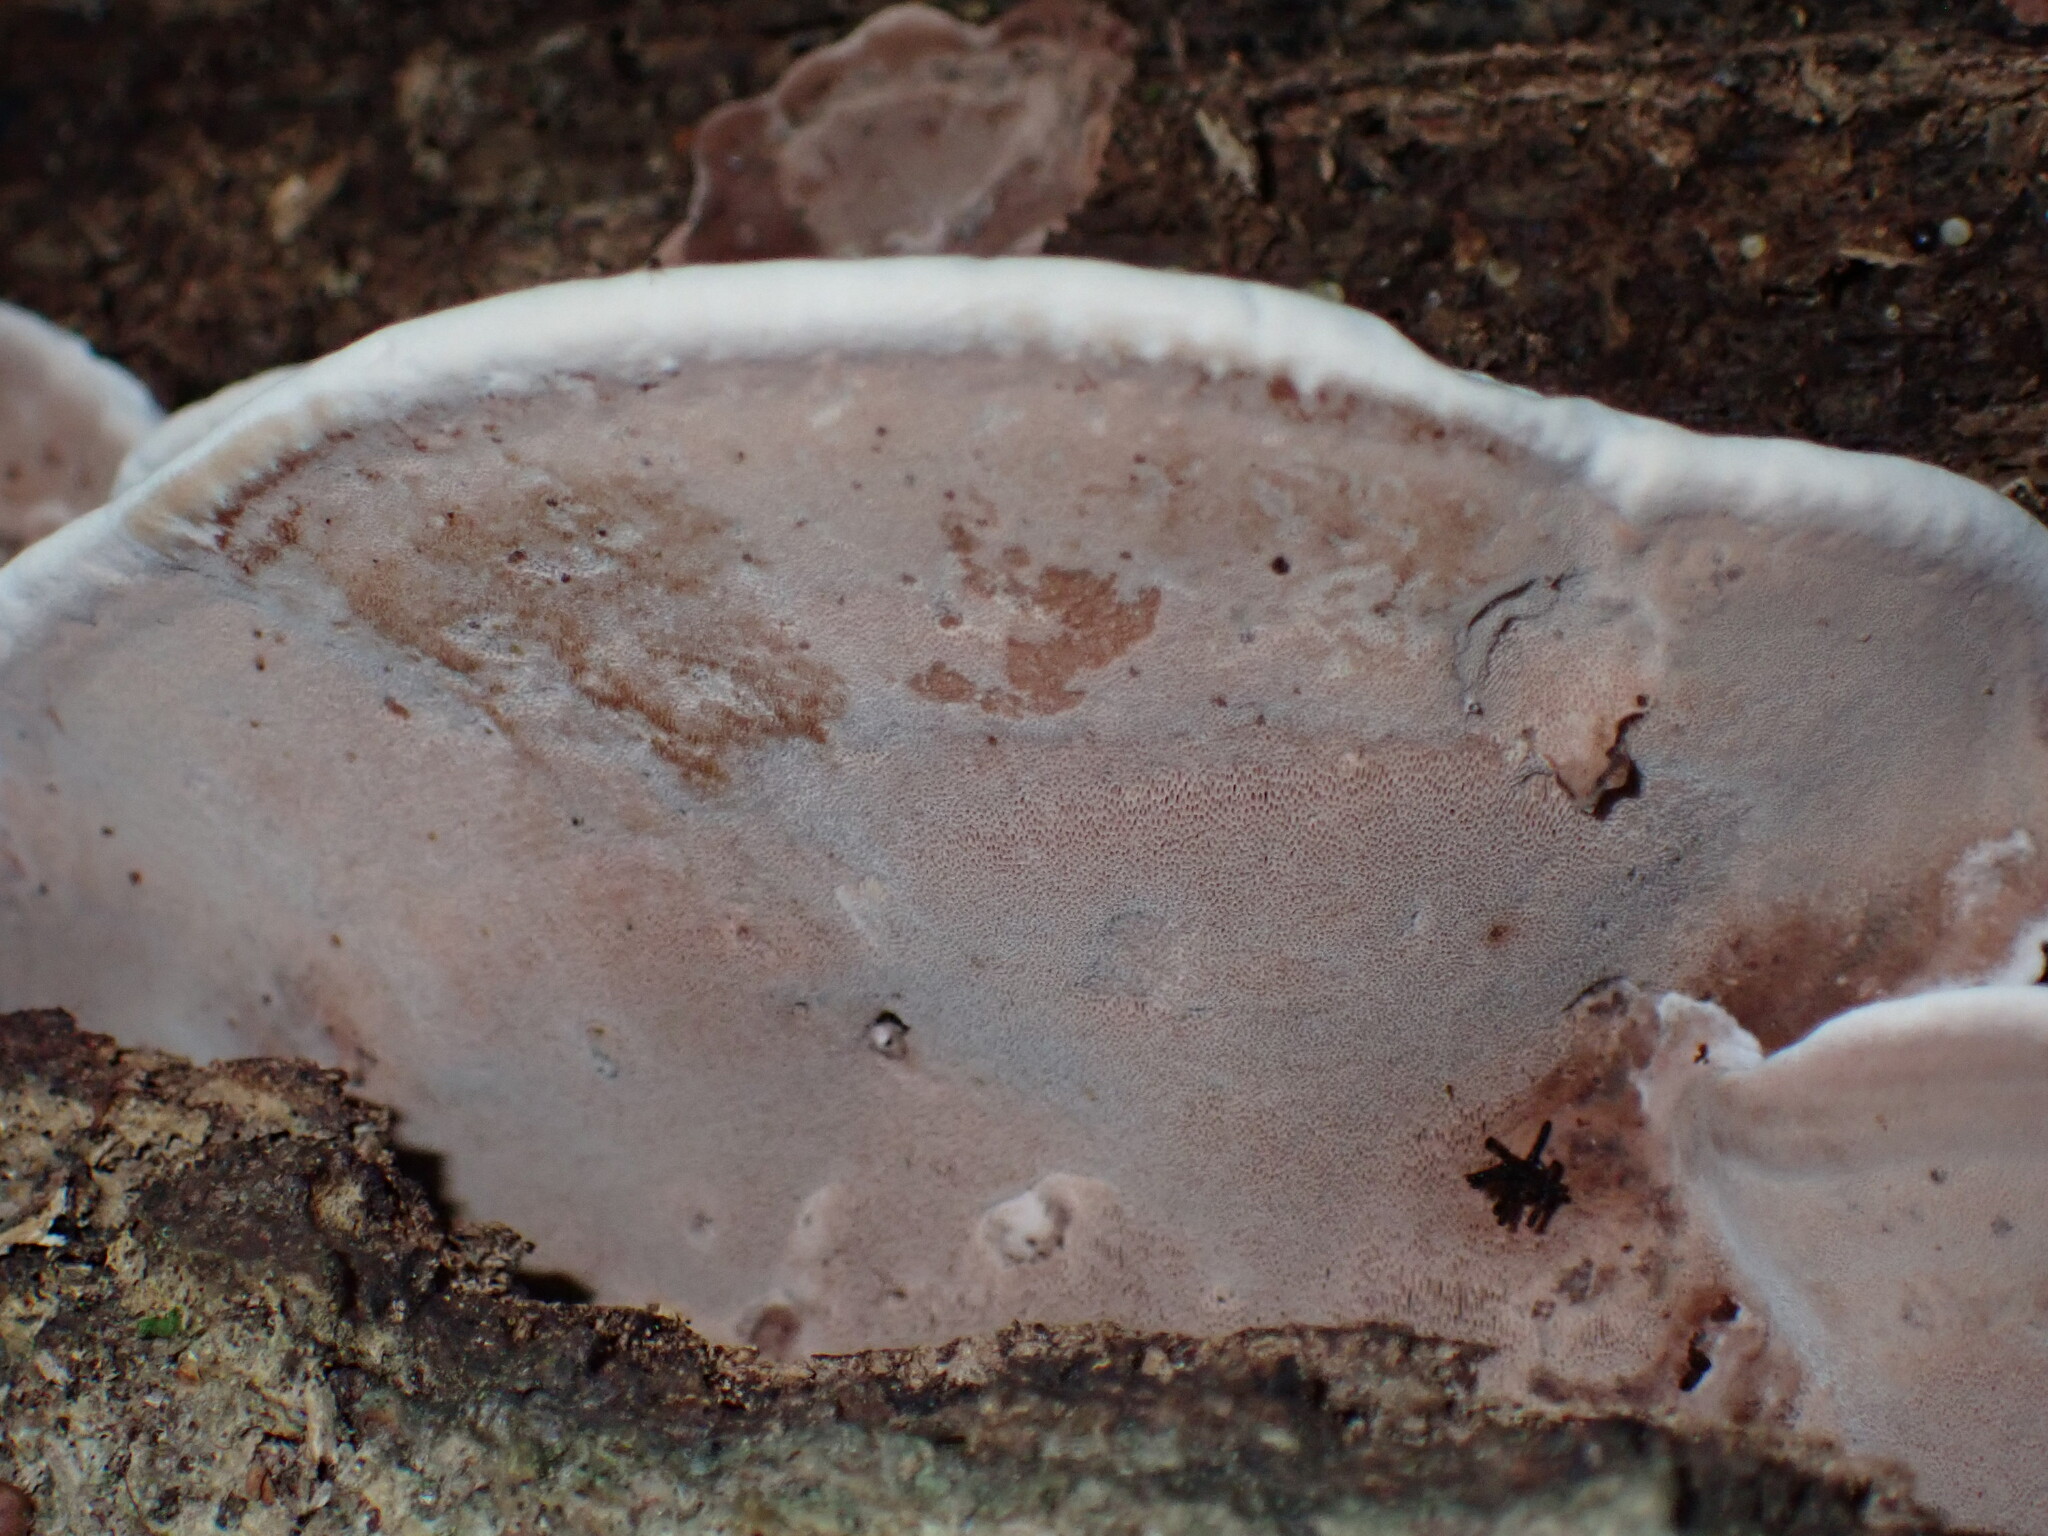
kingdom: Fungi
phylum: Basidiomycota
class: Agaricomycetes
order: Polyporales
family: Steccherinaceae
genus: Nigroporus
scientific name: Nigroporus vinosus
